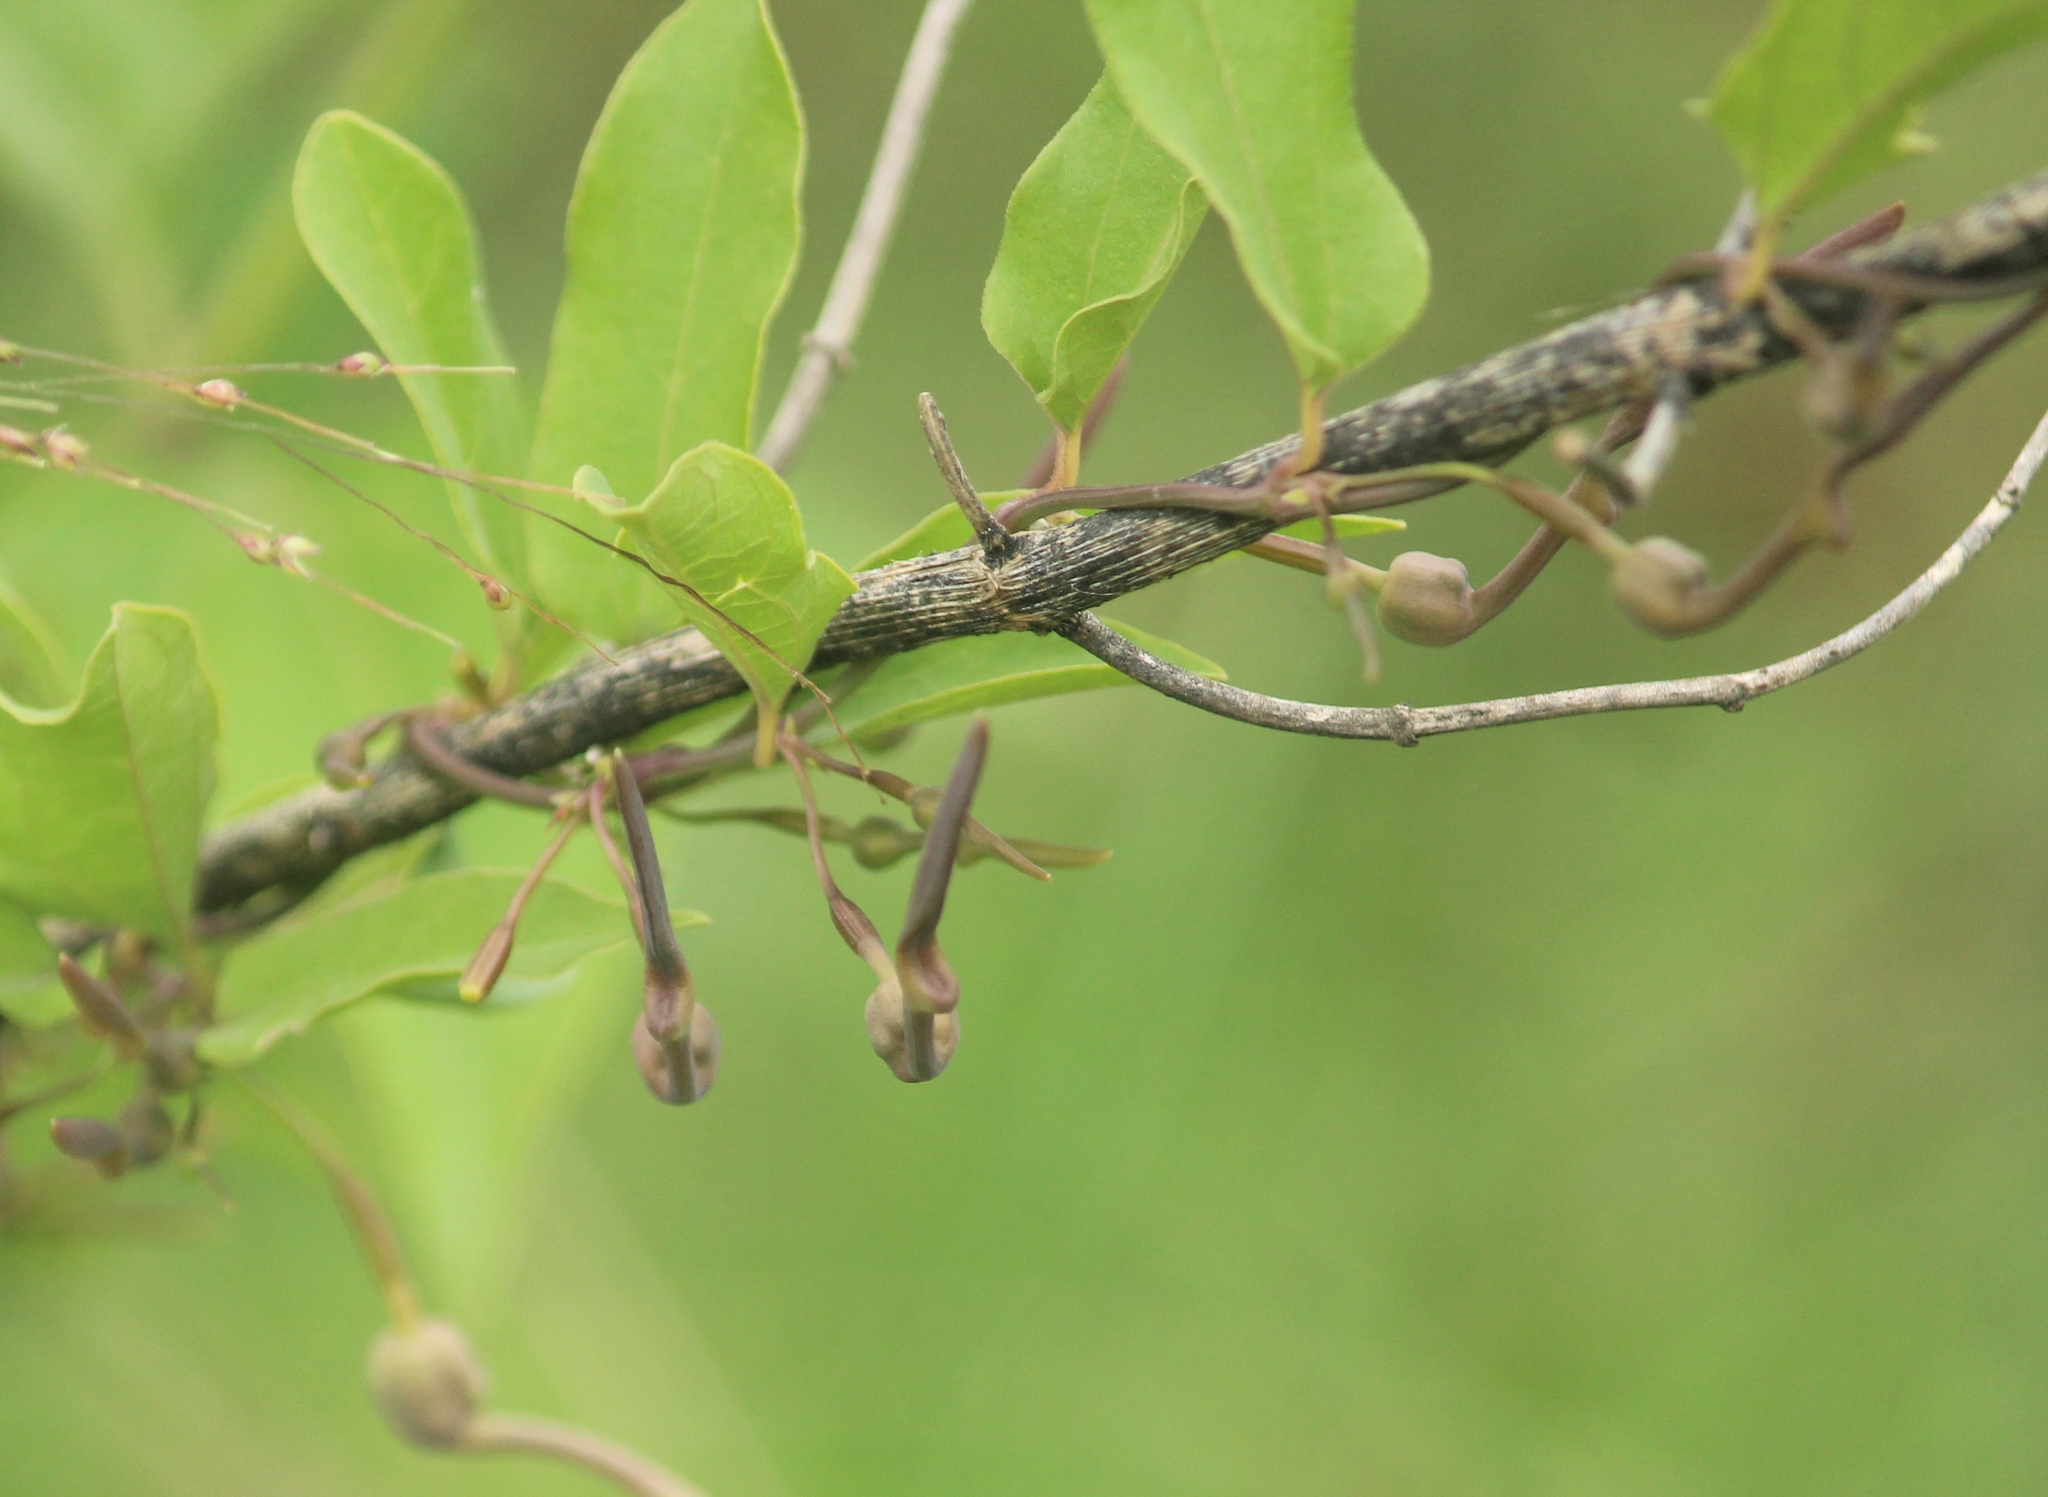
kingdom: Plantae
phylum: Tracheophyta
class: Magnoliopsida
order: Piperales
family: Aristolochiaceae
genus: Aristolochia
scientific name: Aristolochia indica
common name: Indian birthwort
